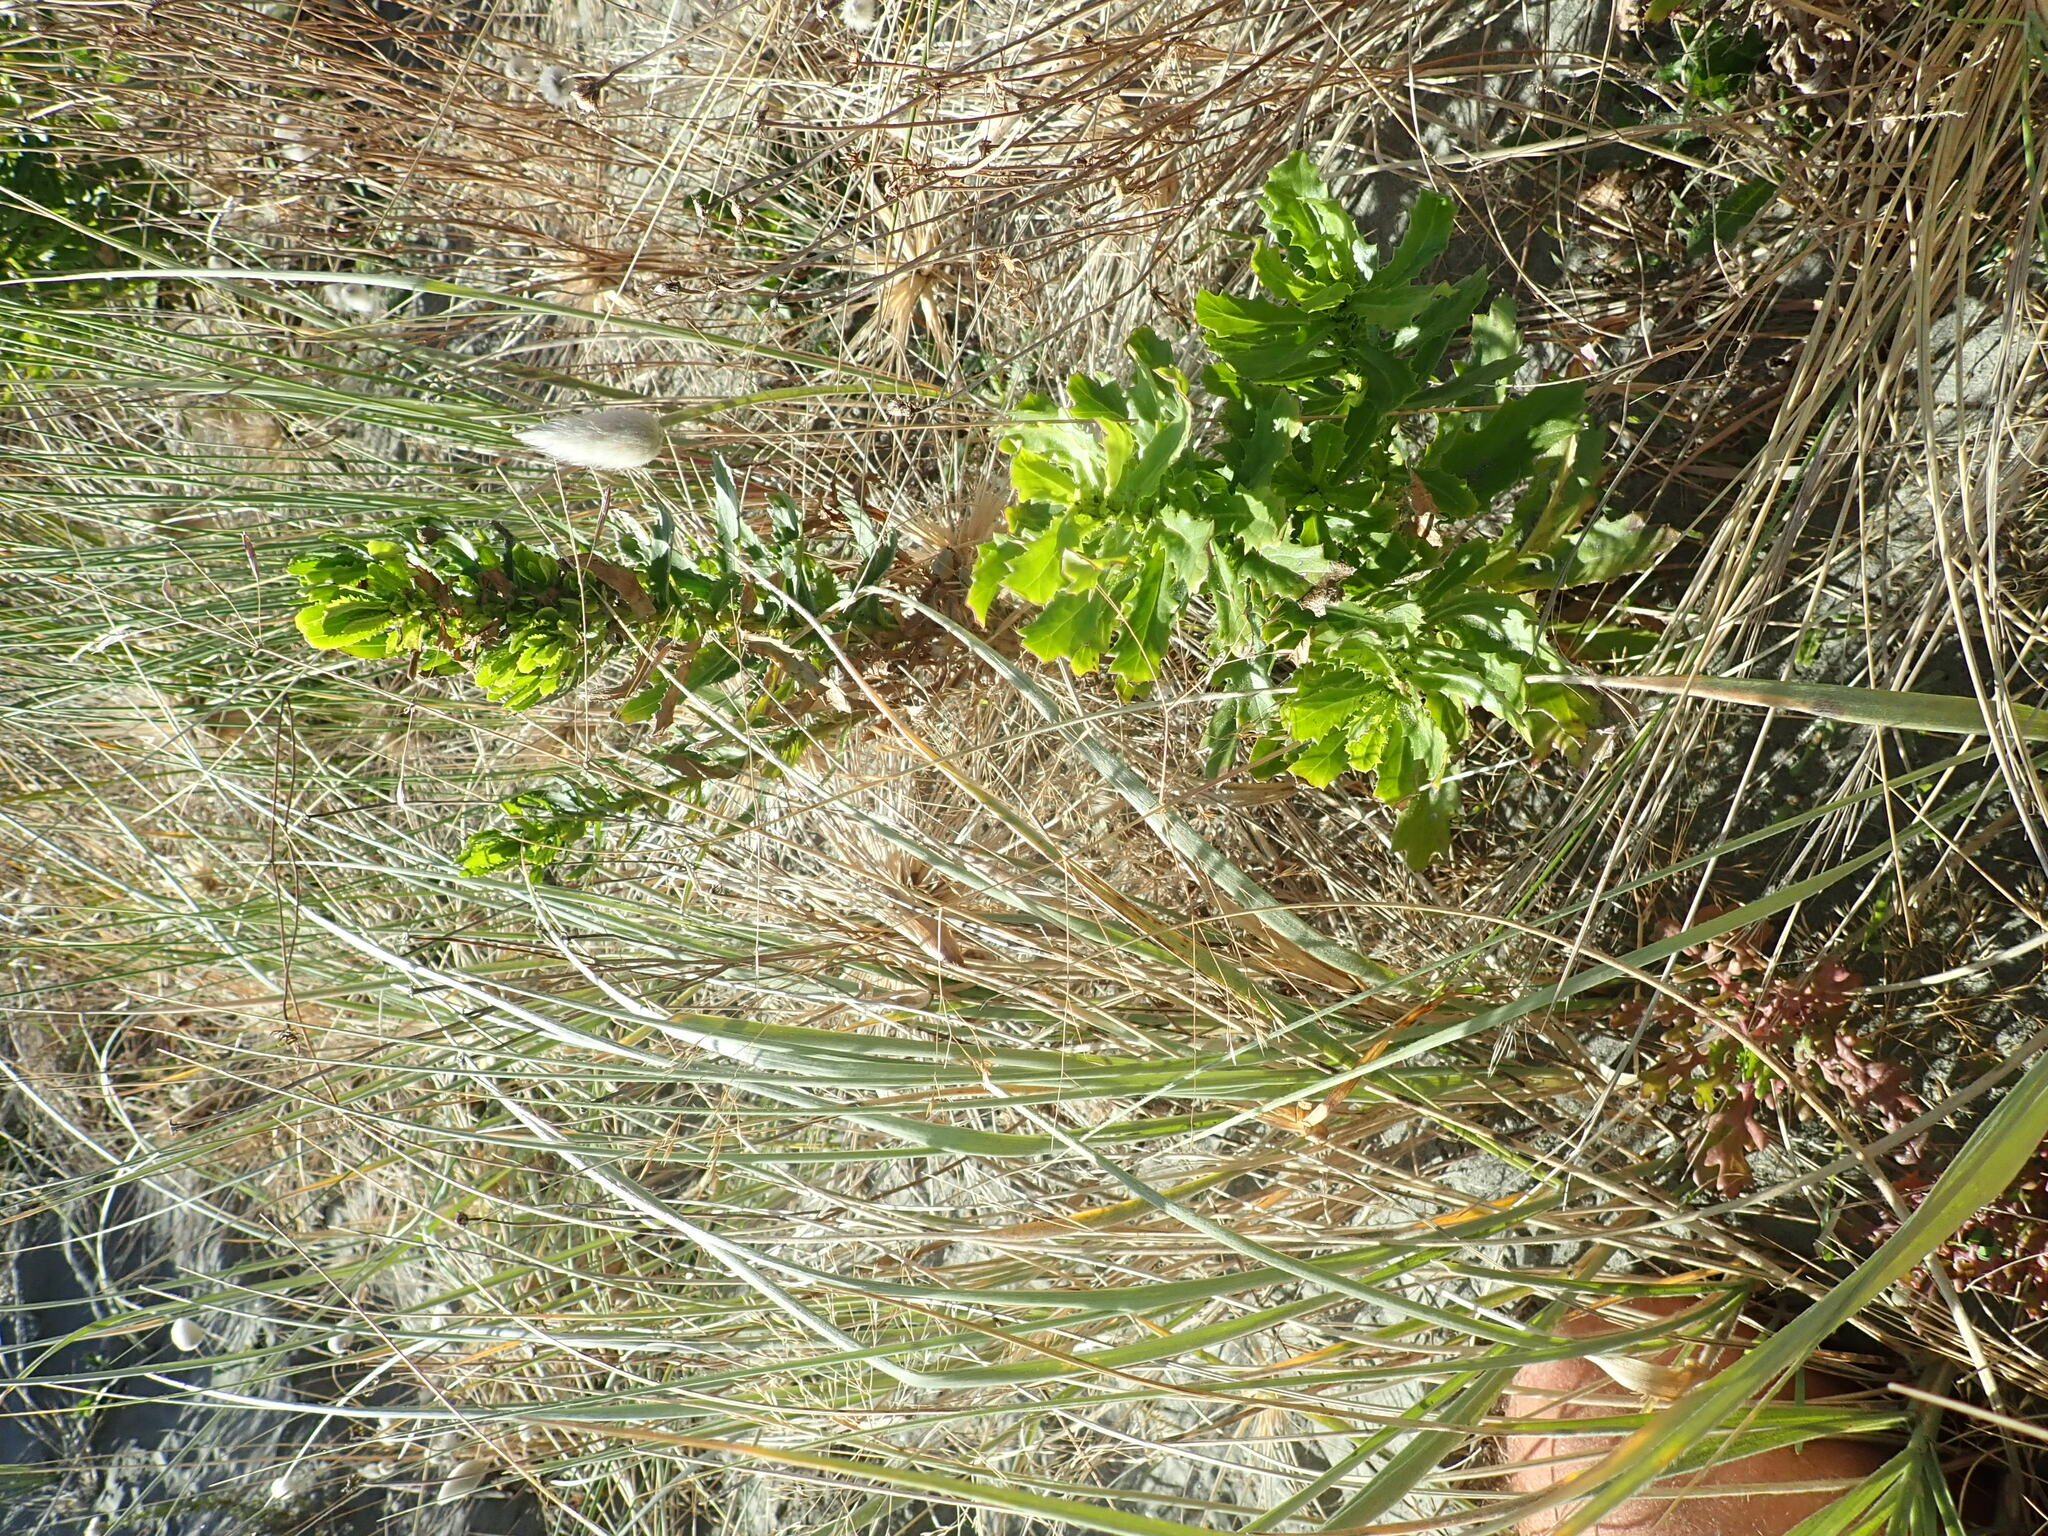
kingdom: Plantae
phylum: Tracheophyta
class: Magnoliopsida
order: Asterales
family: Asteraceae
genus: Senecio
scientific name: Senecio glastifolius
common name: Woad-leaved ragwort
